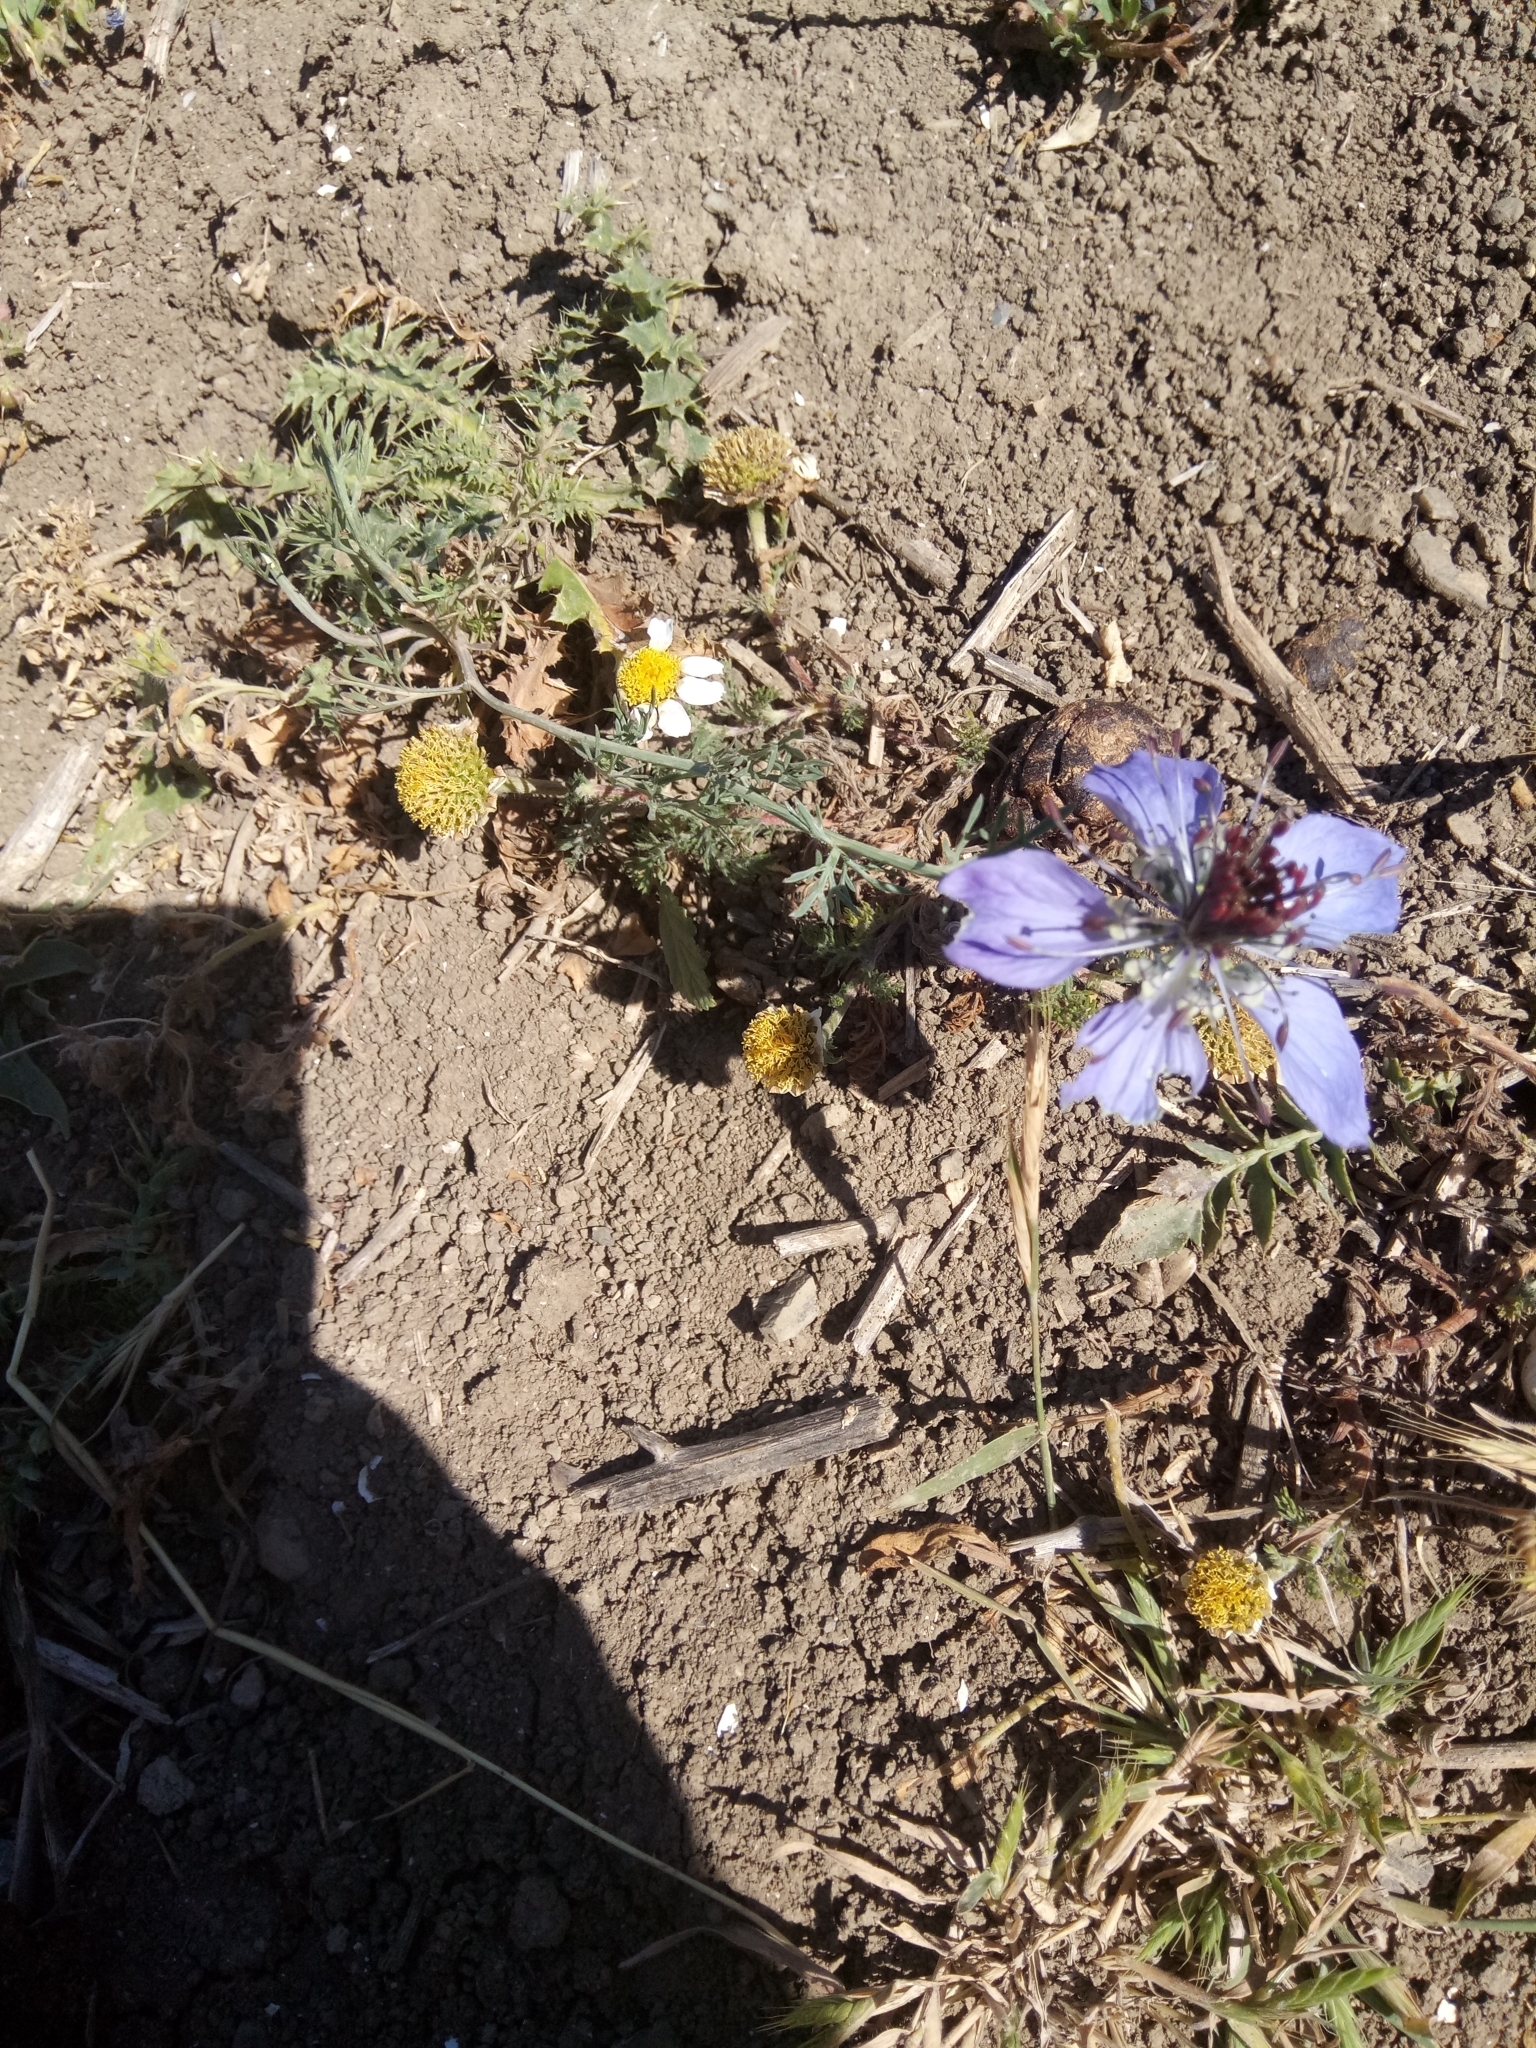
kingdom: Plantae
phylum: Tracheophyta
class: Magnoliopsida
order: Ranunculales
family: Ranunculaceae
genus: Nigella
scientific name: Nigella arvensis
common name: Wild fennel-flower
